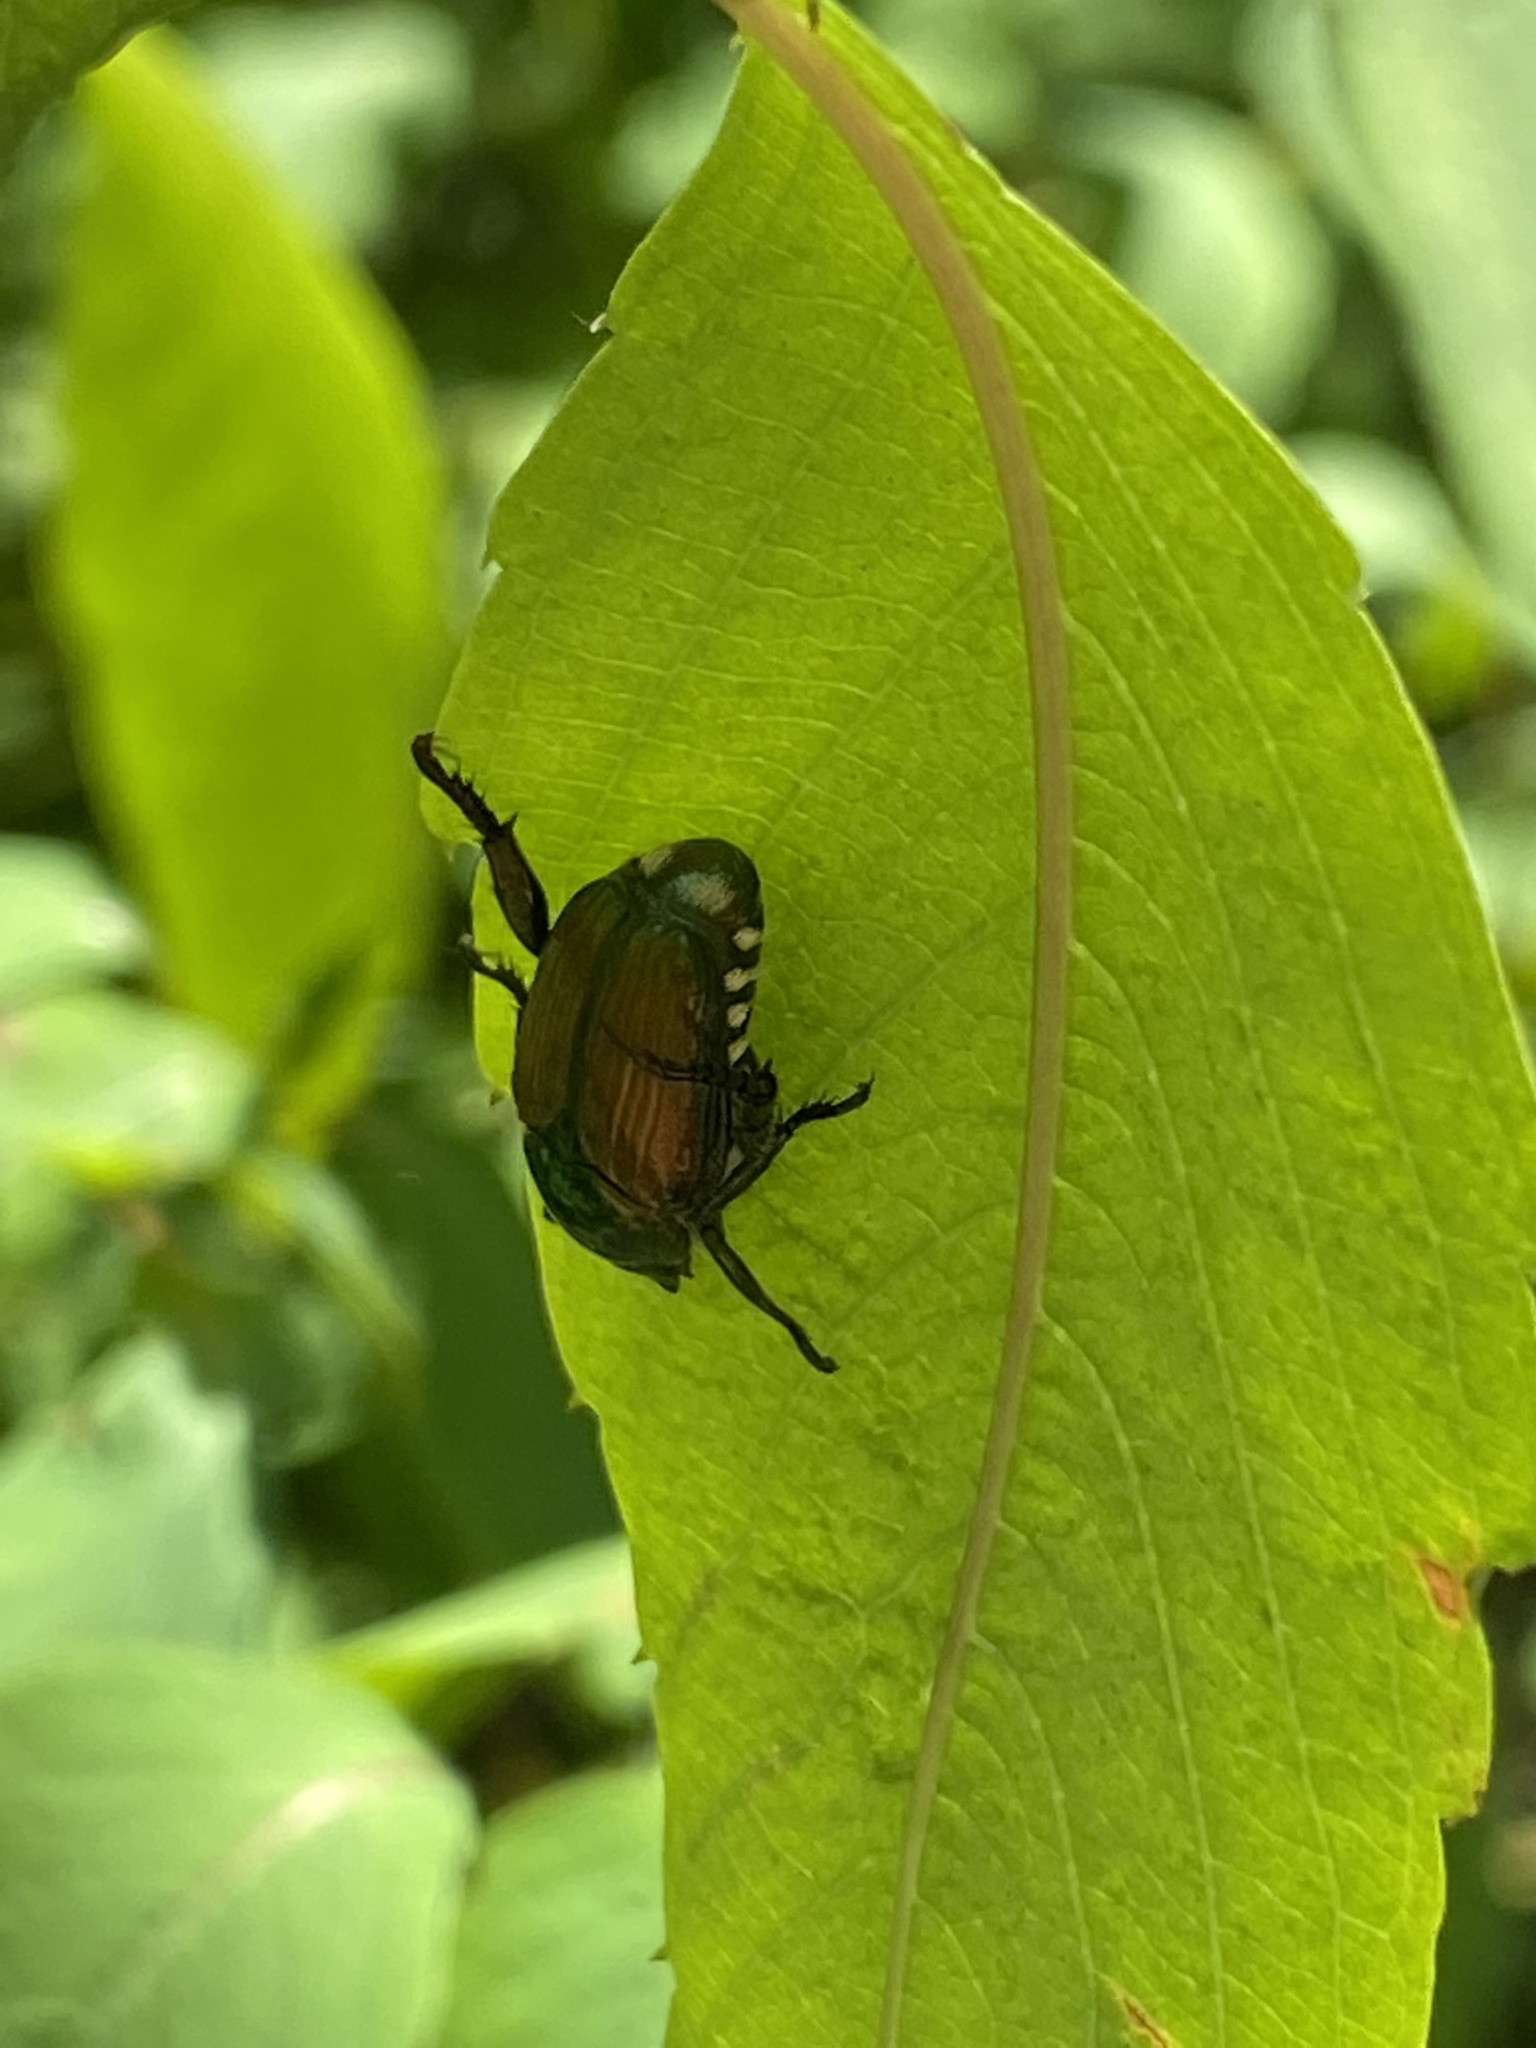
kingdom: Animalia
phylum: Arthropoda
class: Insecta
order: Coleoptera
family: Scarabaeidae
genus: Popillia
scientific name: Popillia japonica
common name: Japanese beetle
